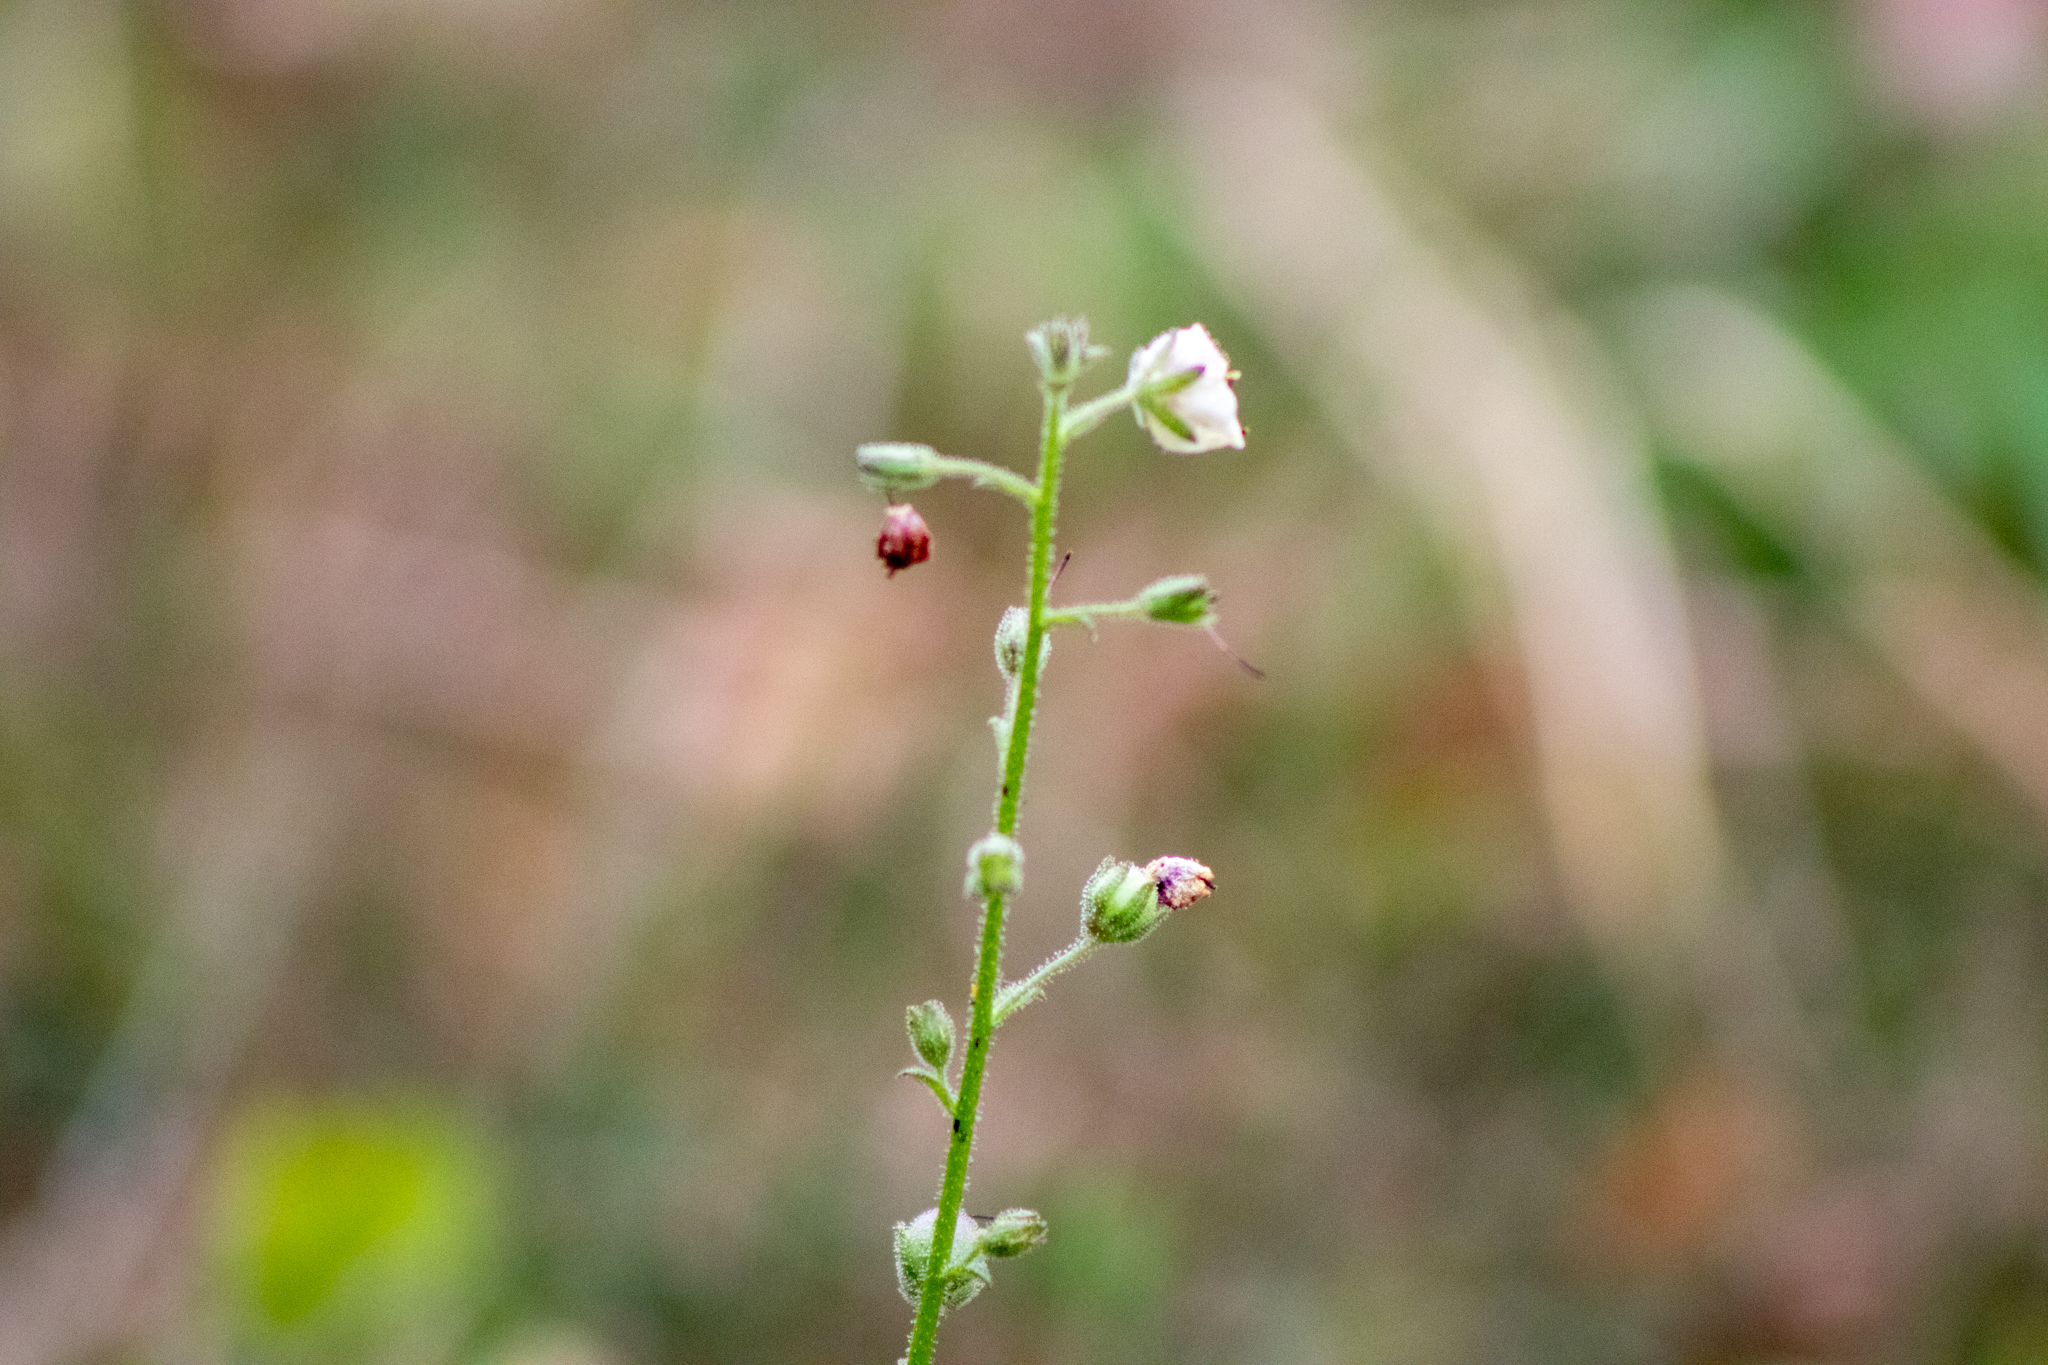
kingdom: Plantae
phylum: Tracheophyta
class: Magnoliopsida
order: Lamiales
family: Scrophulariaceae
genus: Verbascum
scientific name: Verbascum blattaria
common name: Moth mullein
